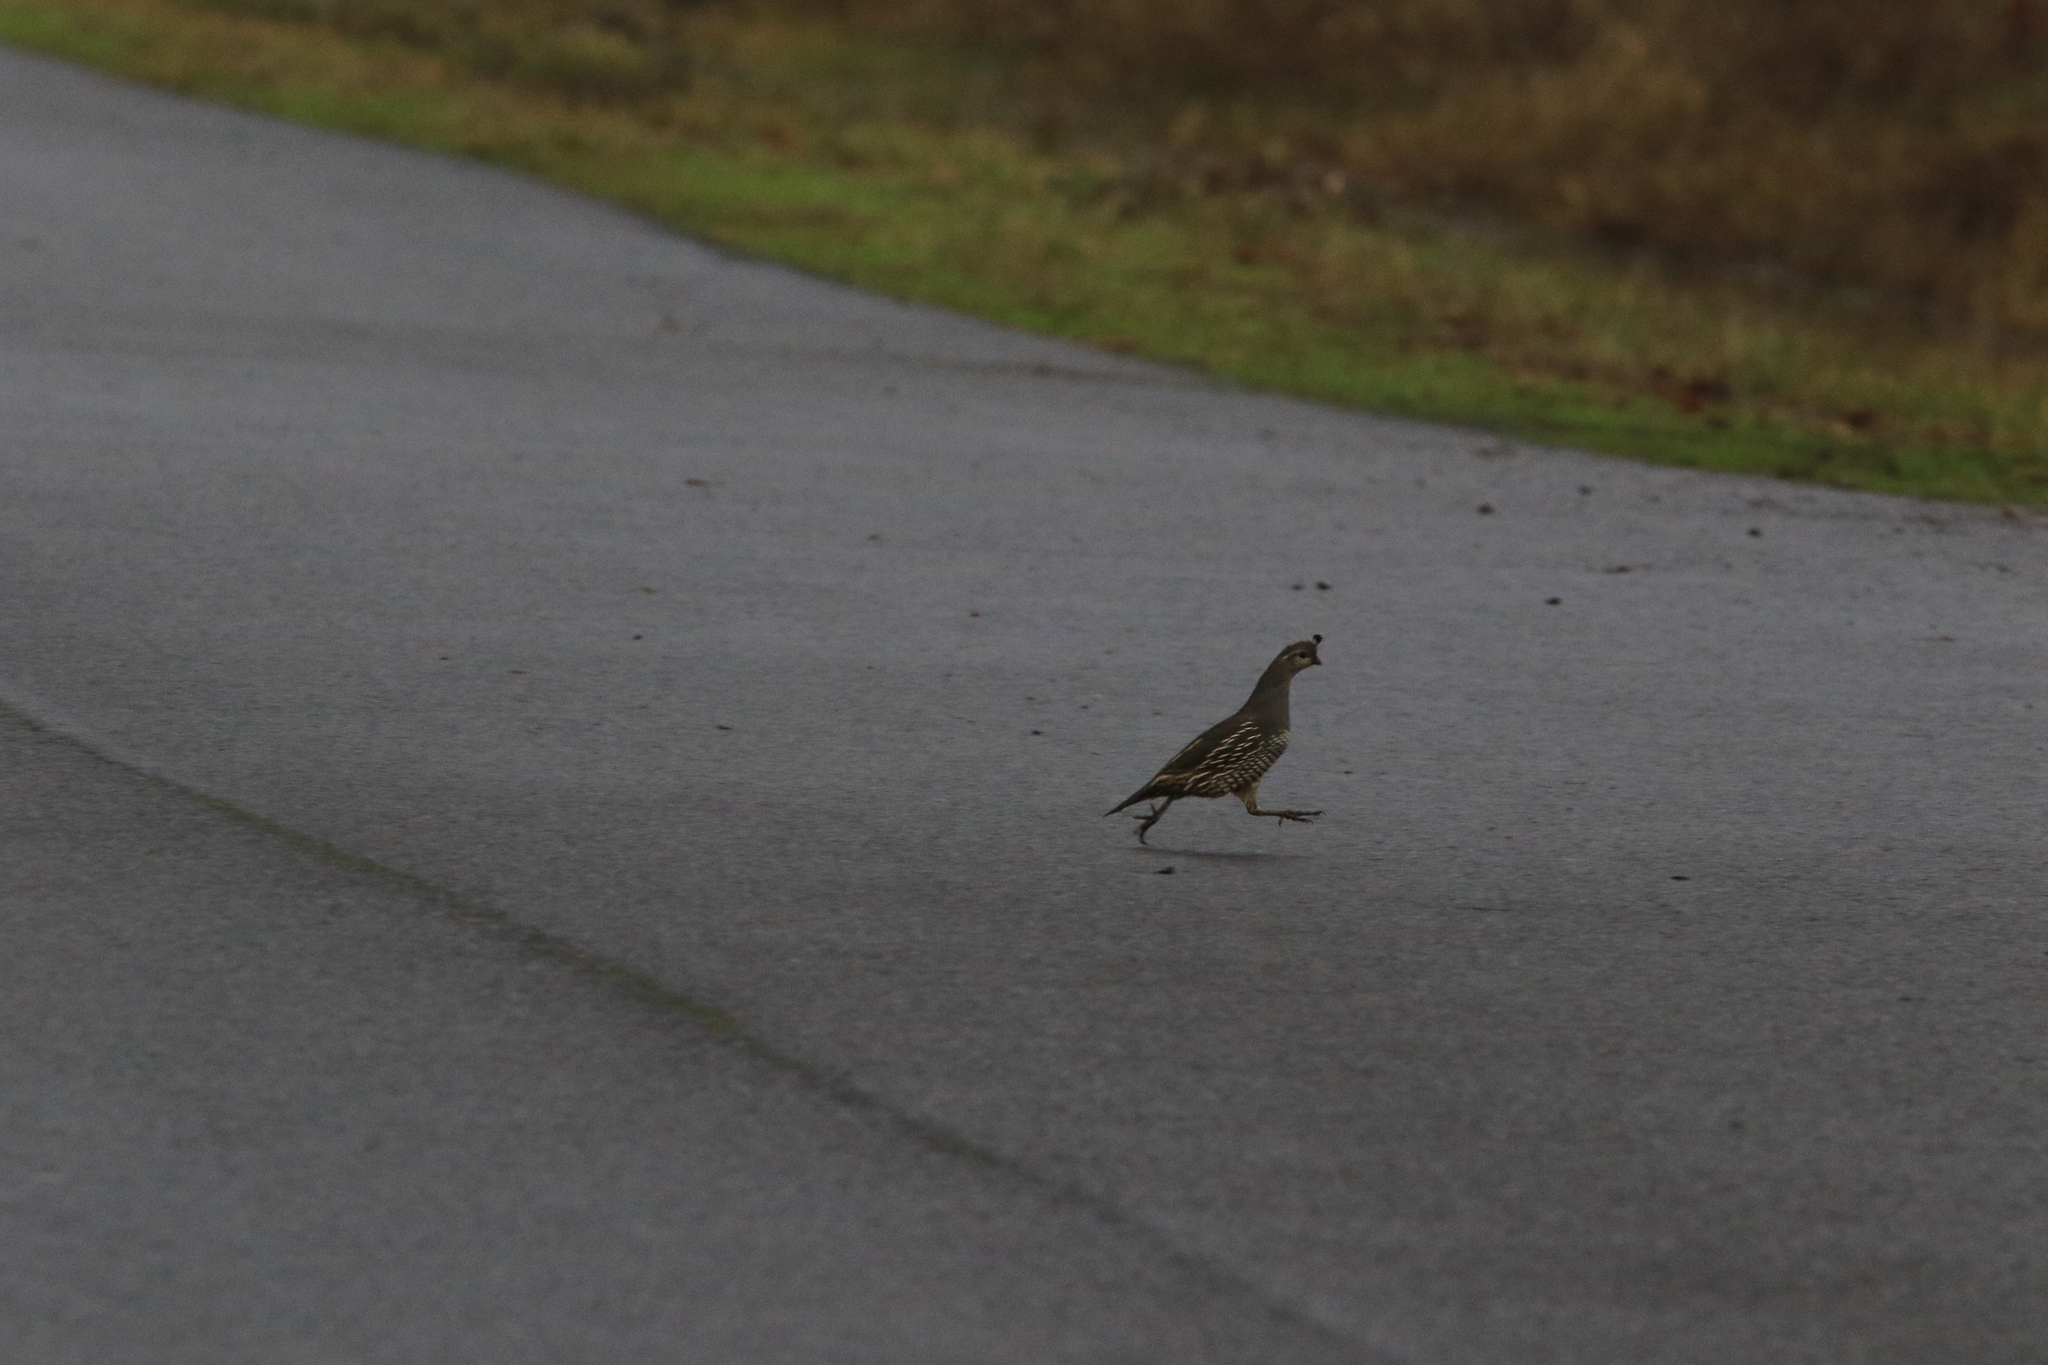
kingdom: Animalia
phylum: Chordata
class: Aves
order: Galliformes
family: Odontophoridae
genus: Callipepla
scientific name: Callipepla californica
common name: California quail
